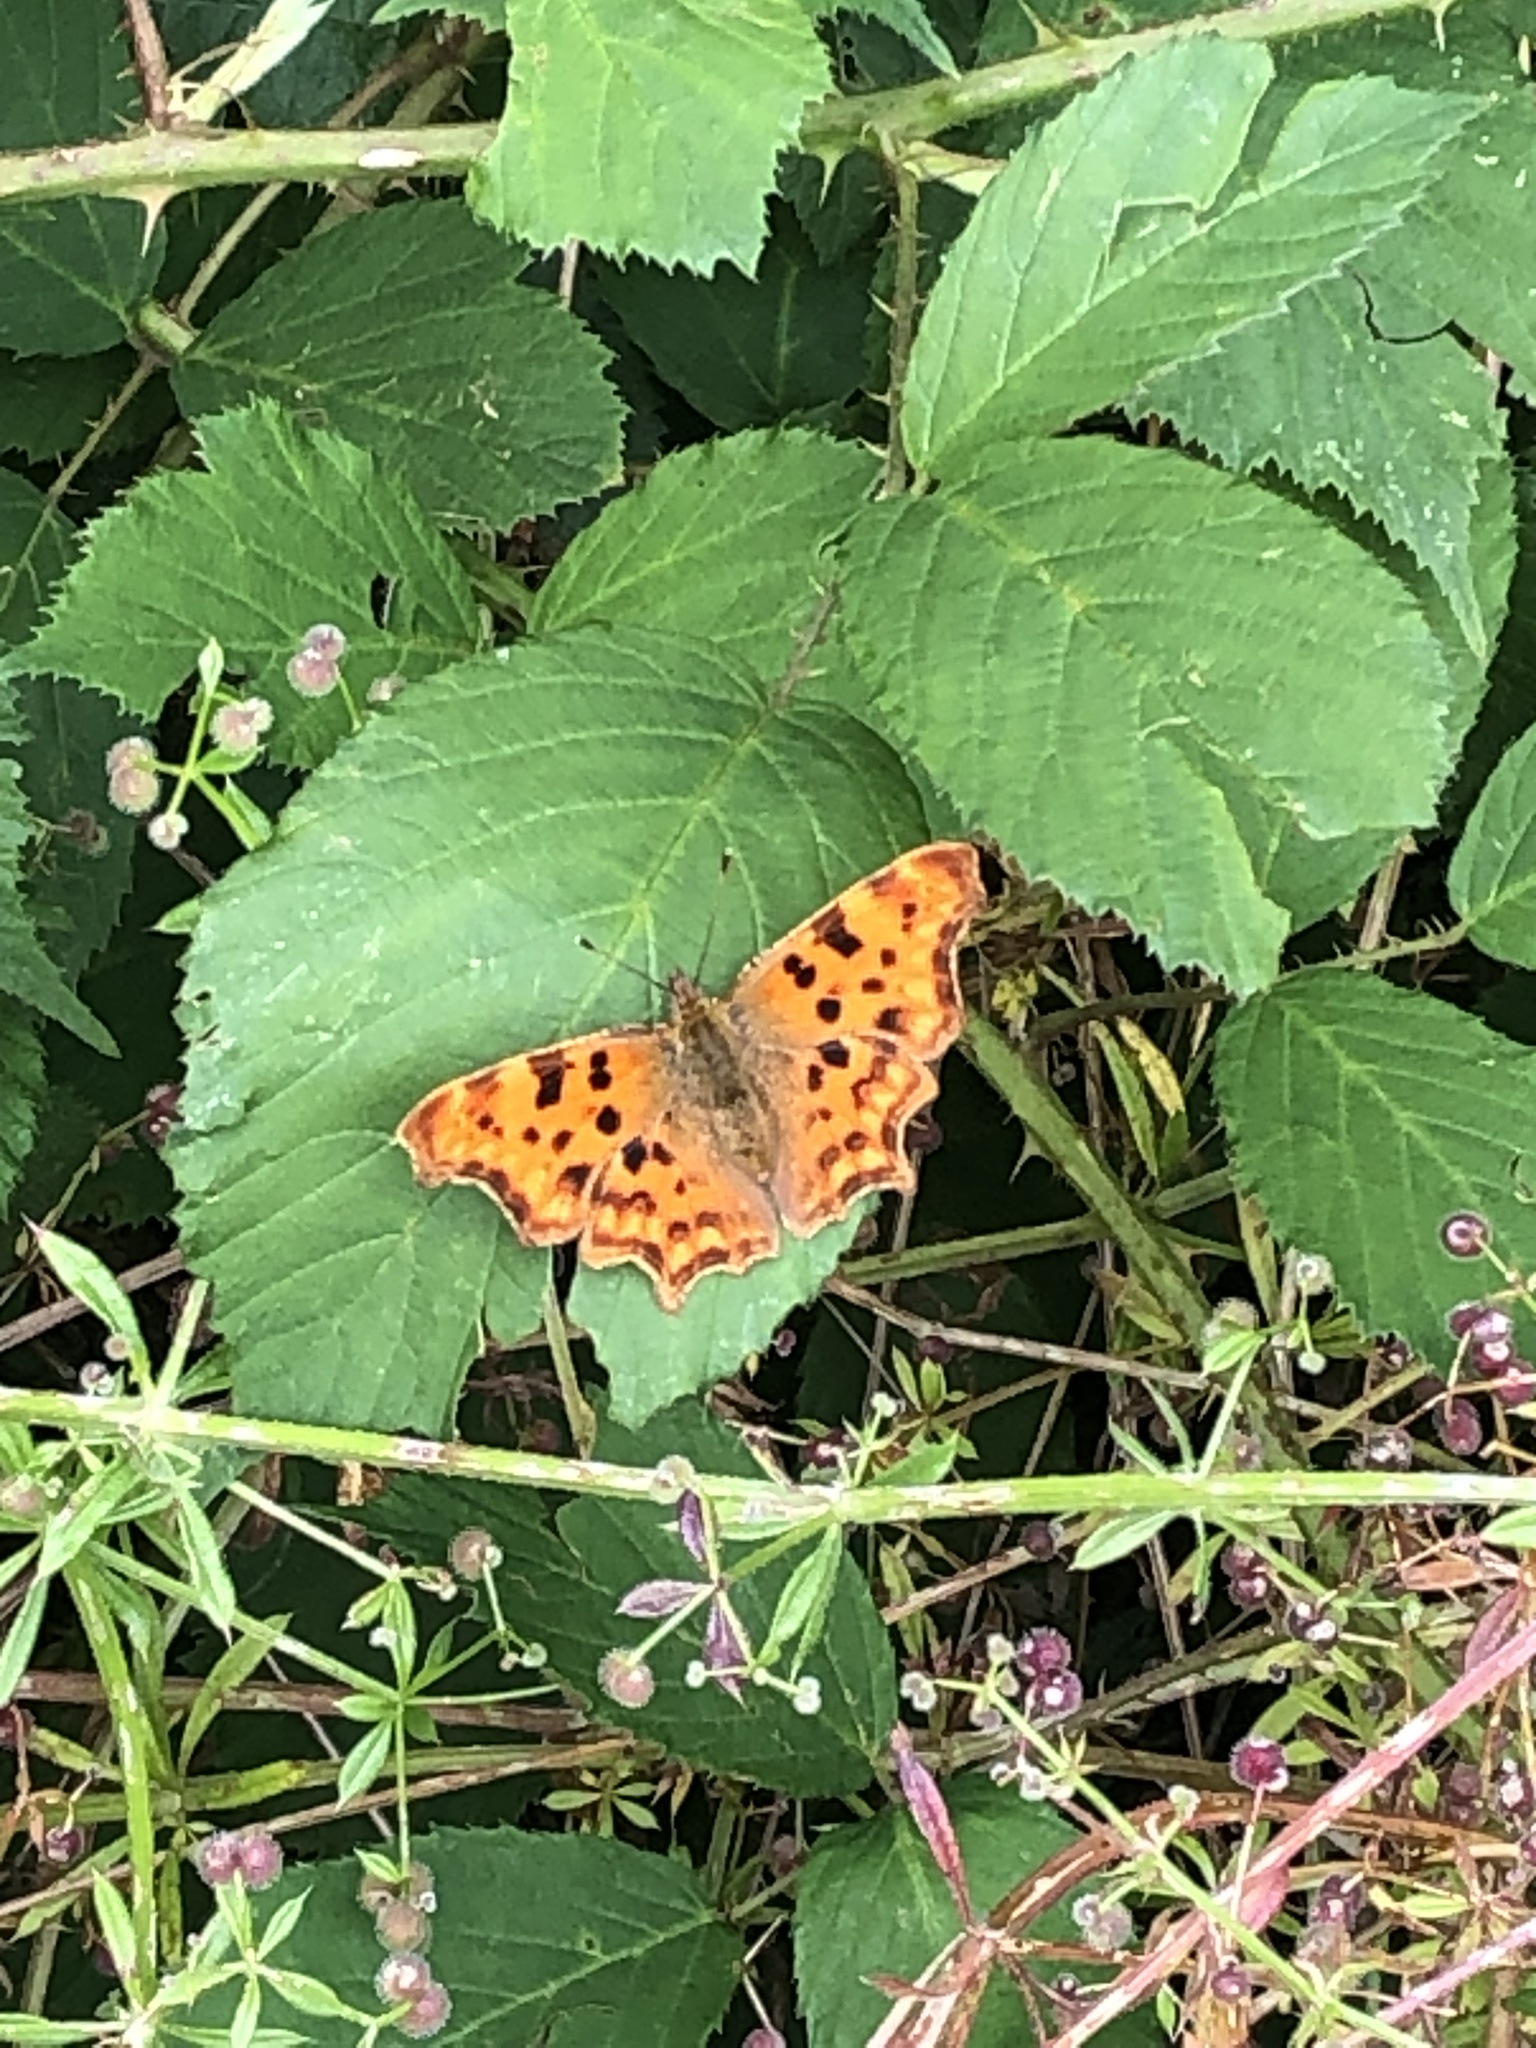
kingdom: Animalia
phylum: Arthropoda
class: Insecta
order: Lepidoptera
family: Nymphalidae
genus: Polygonia
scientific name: Polygonia c-album
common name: Comma
